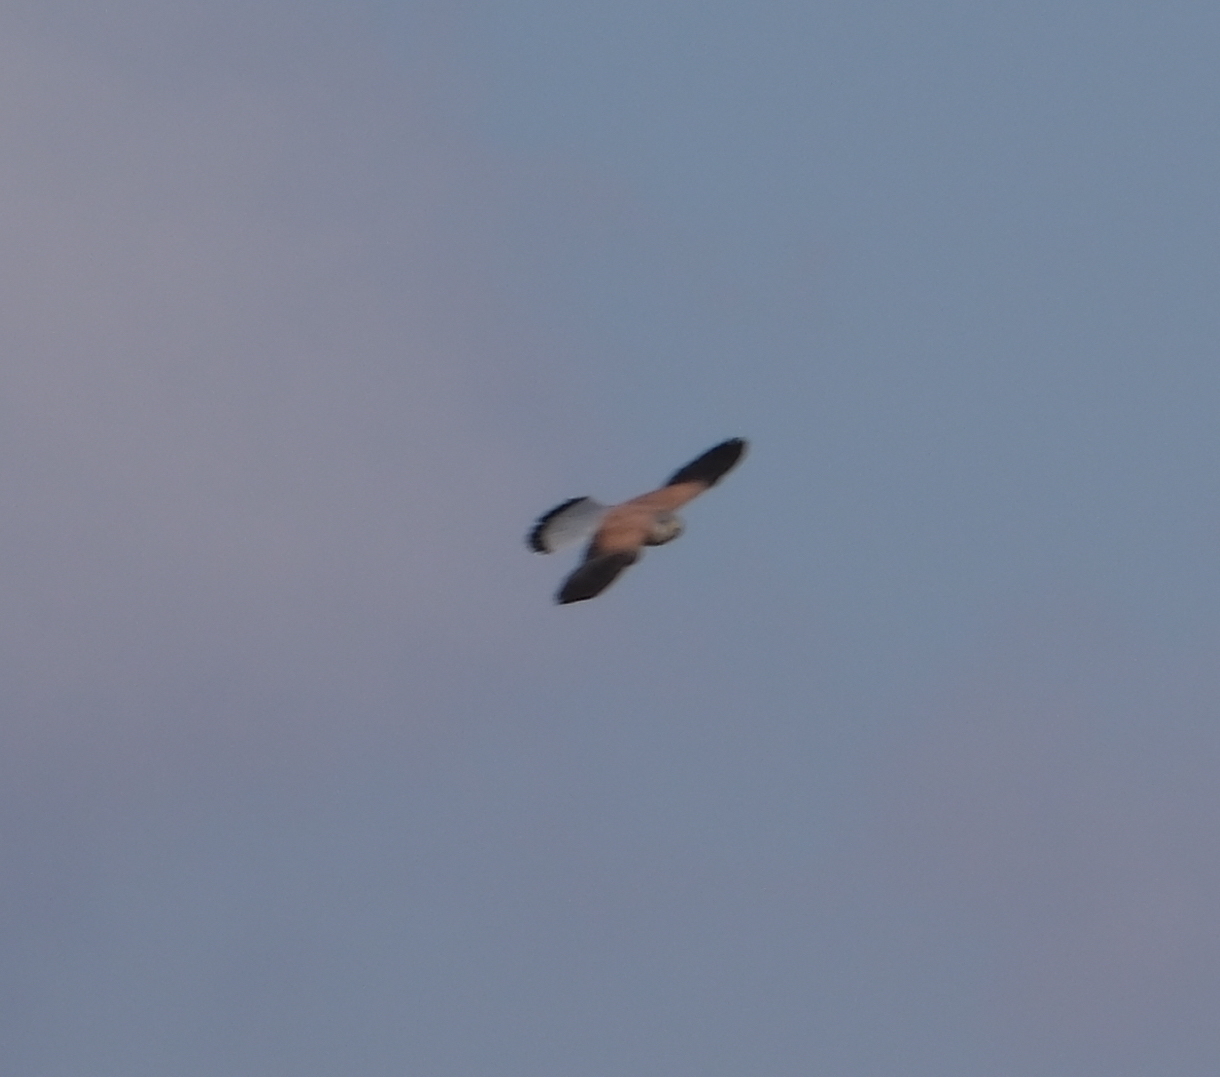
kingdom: Animalia
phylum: Chordata
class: Aves
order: Falconiformes
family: Falconidae
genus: Falco
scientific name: Falco tinnunculus
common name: Common kestrel
